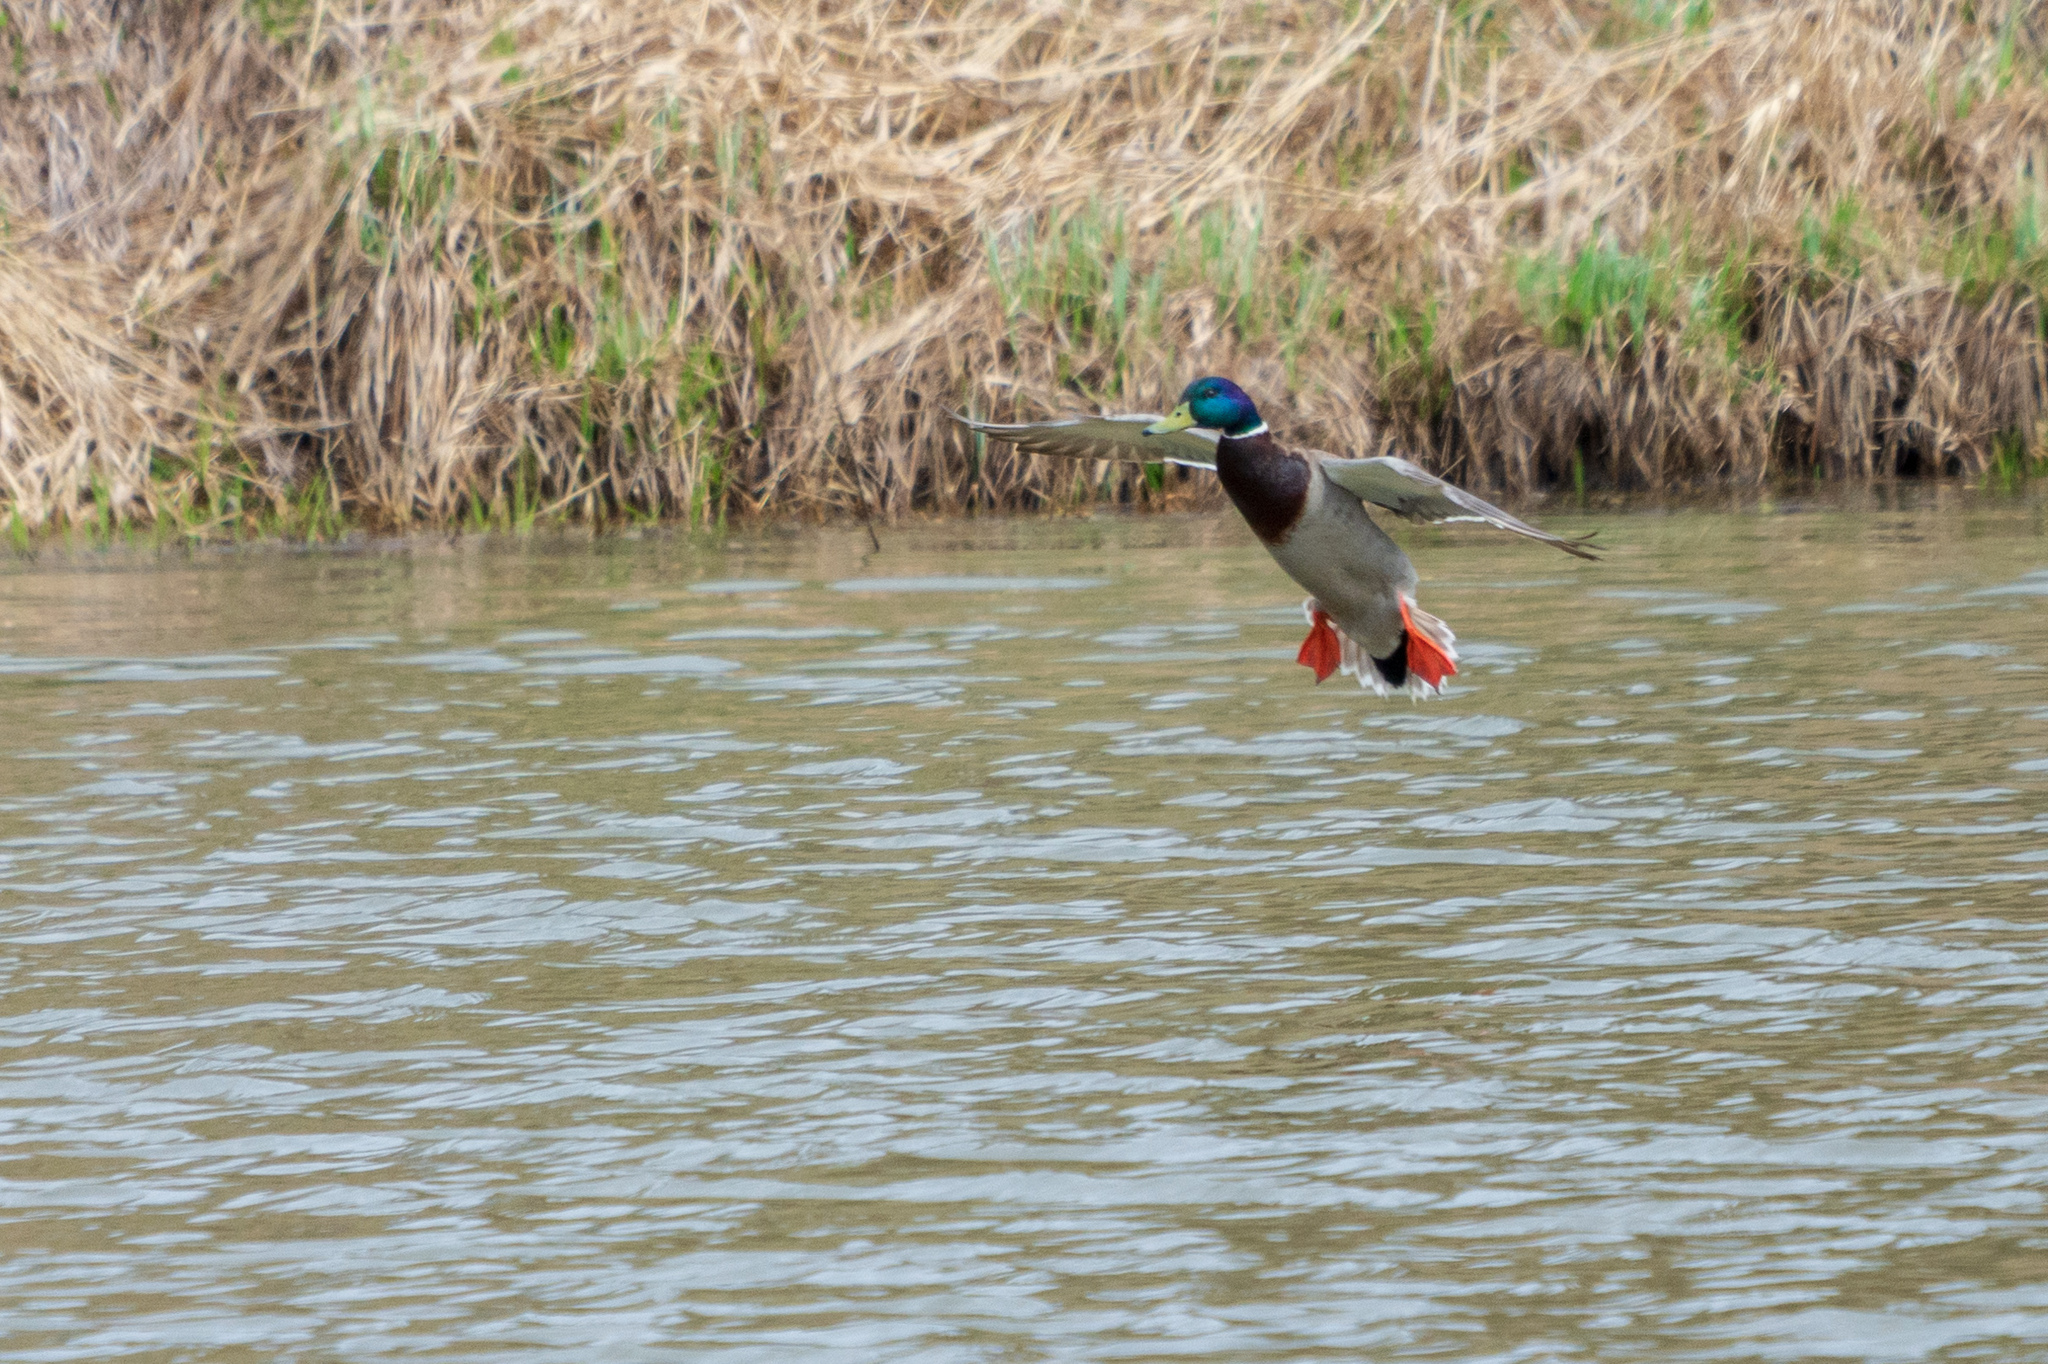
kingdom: Animalia
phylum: Chordata
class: Aves
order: Anseriformes
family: Anatidae
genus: Anas
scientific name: Anas platyrhynchos
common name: Mallard
